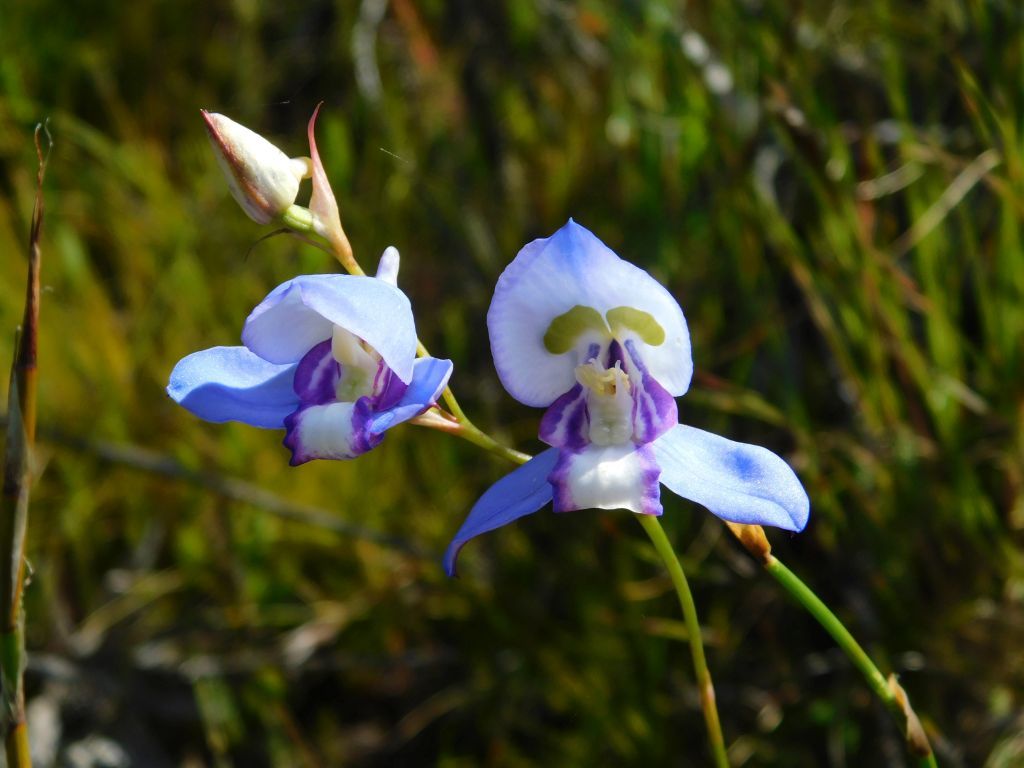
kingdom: Plantae
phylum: Tracheophyta
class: Liliopsida
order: Asparagales
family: Orchidaceae
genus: Disa
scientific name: Disa graminifolia
